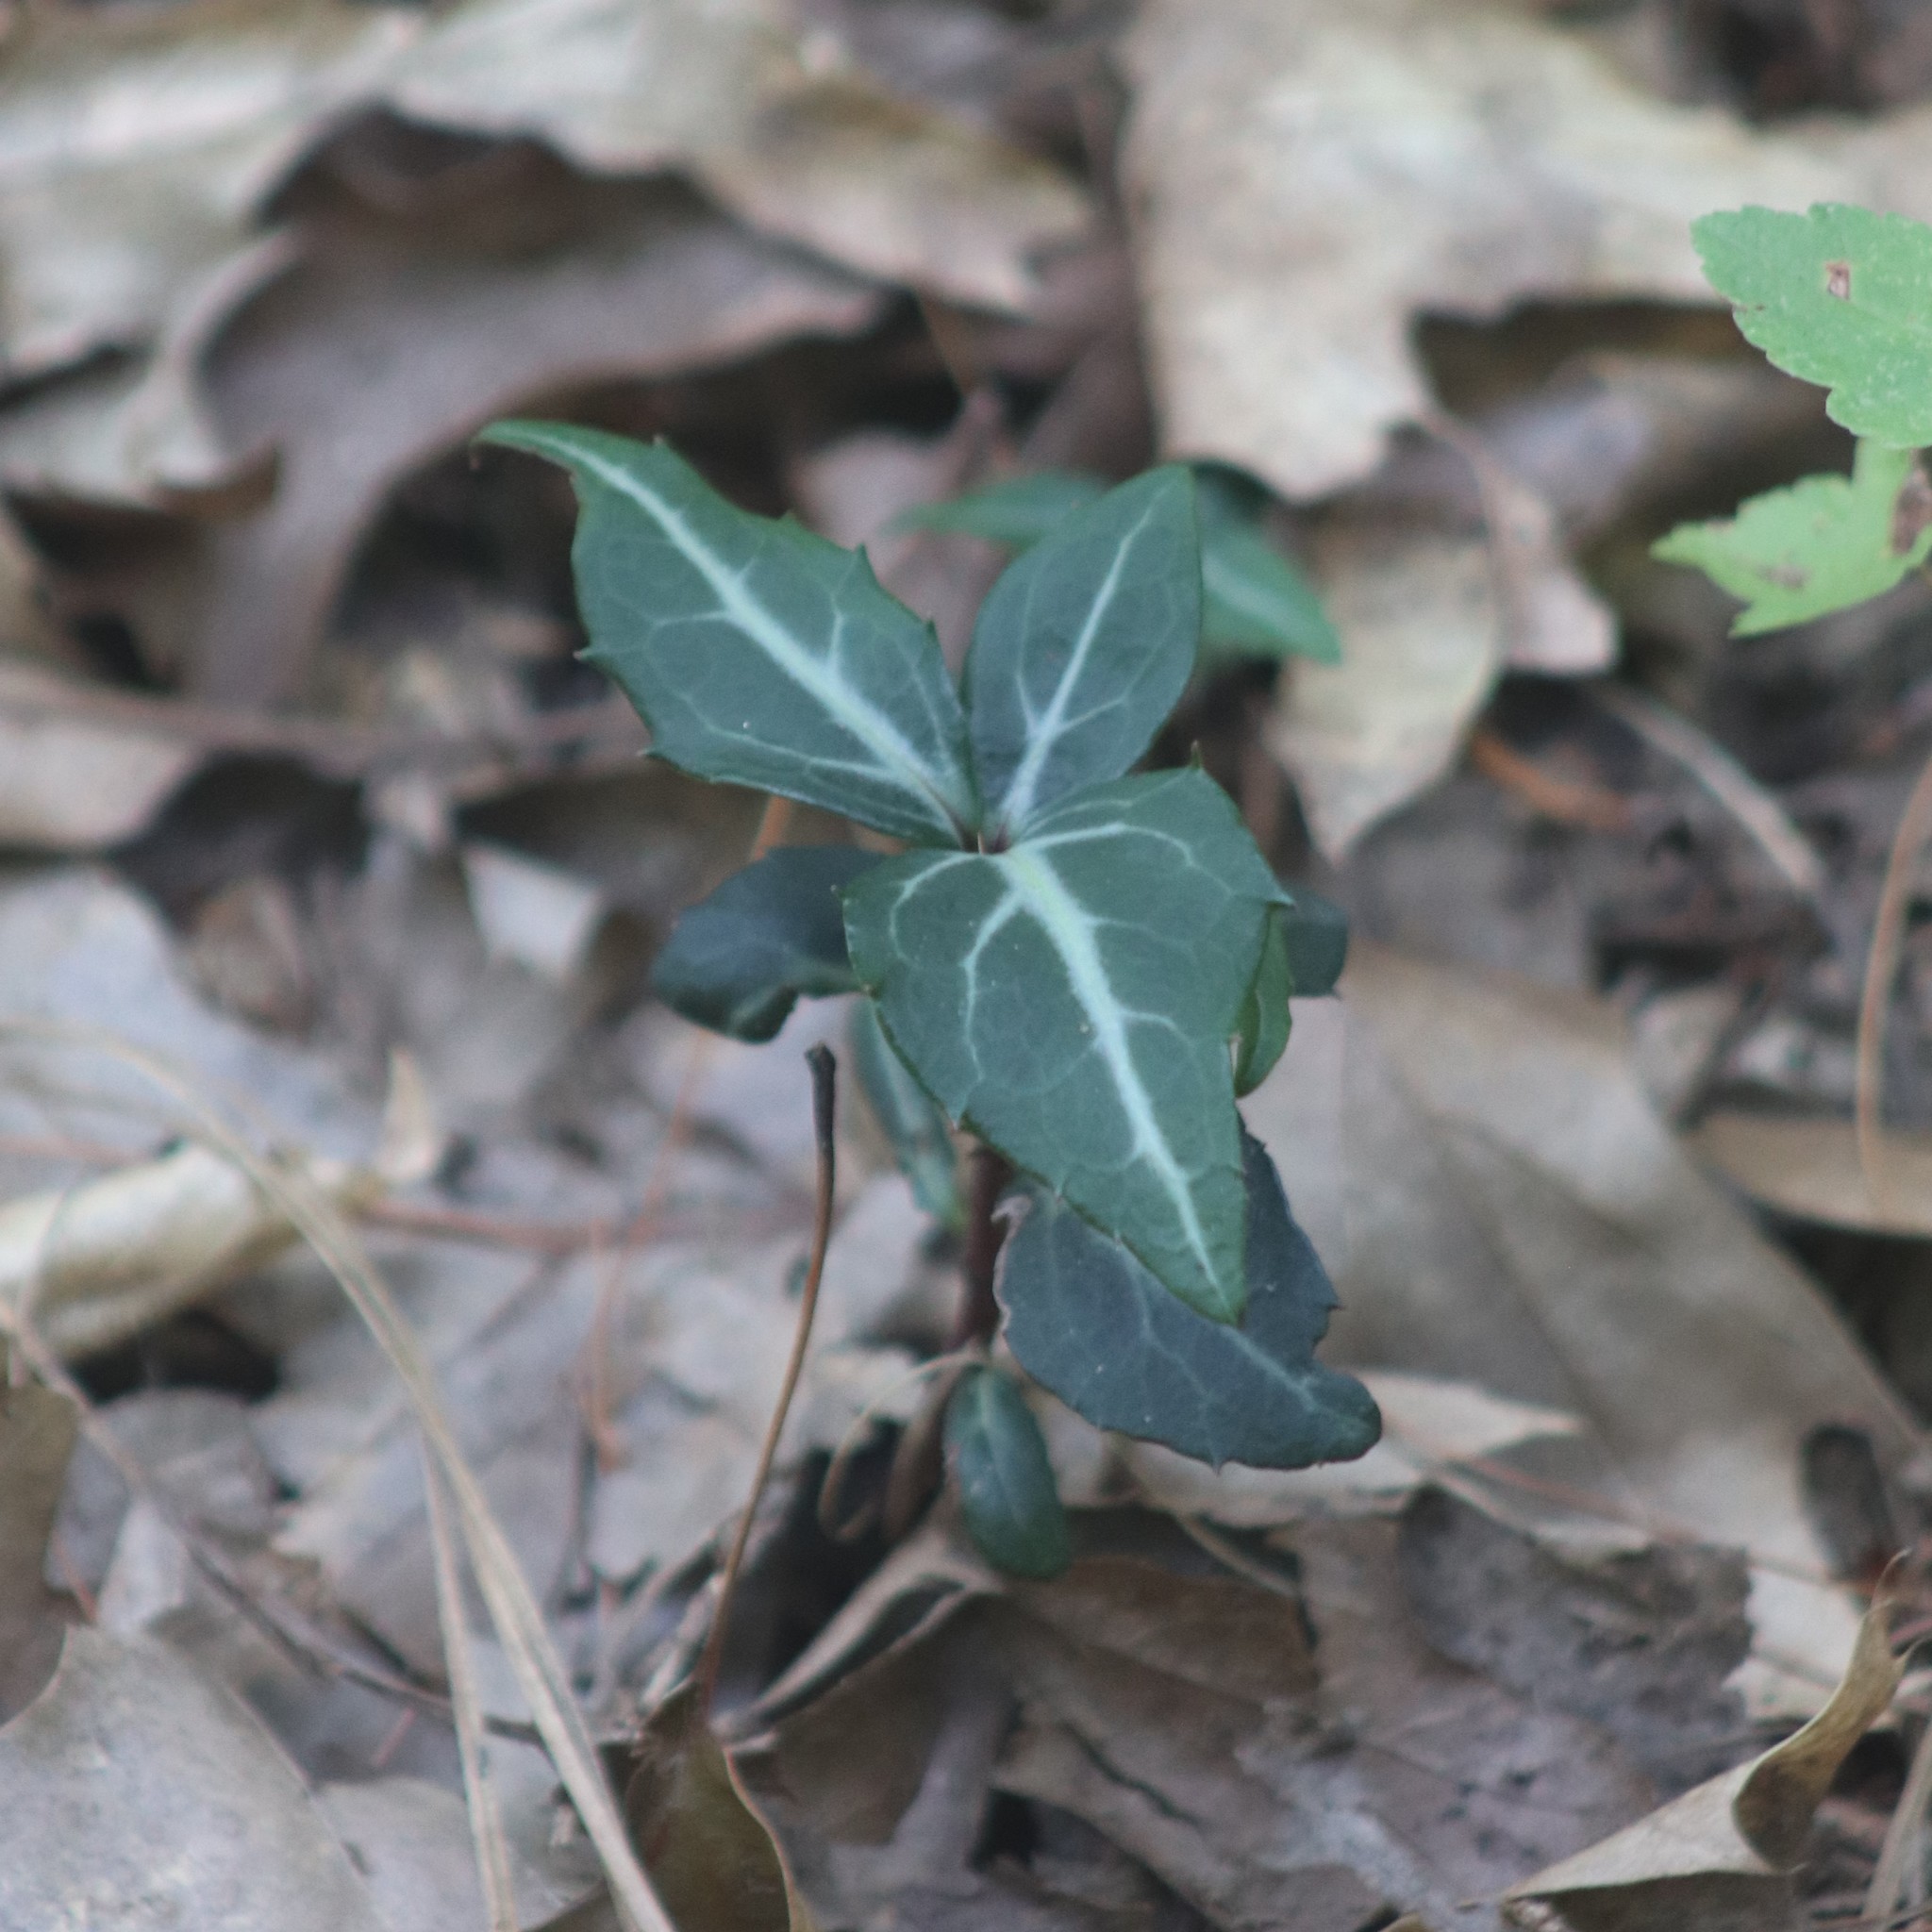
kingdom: Plantae
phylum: Tracheophyta
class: Magnoliopsida
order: Ericales
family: Ericaceae
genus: Chimaphila
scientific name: Chimaphila maculata
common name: Spotted pipsissewa
